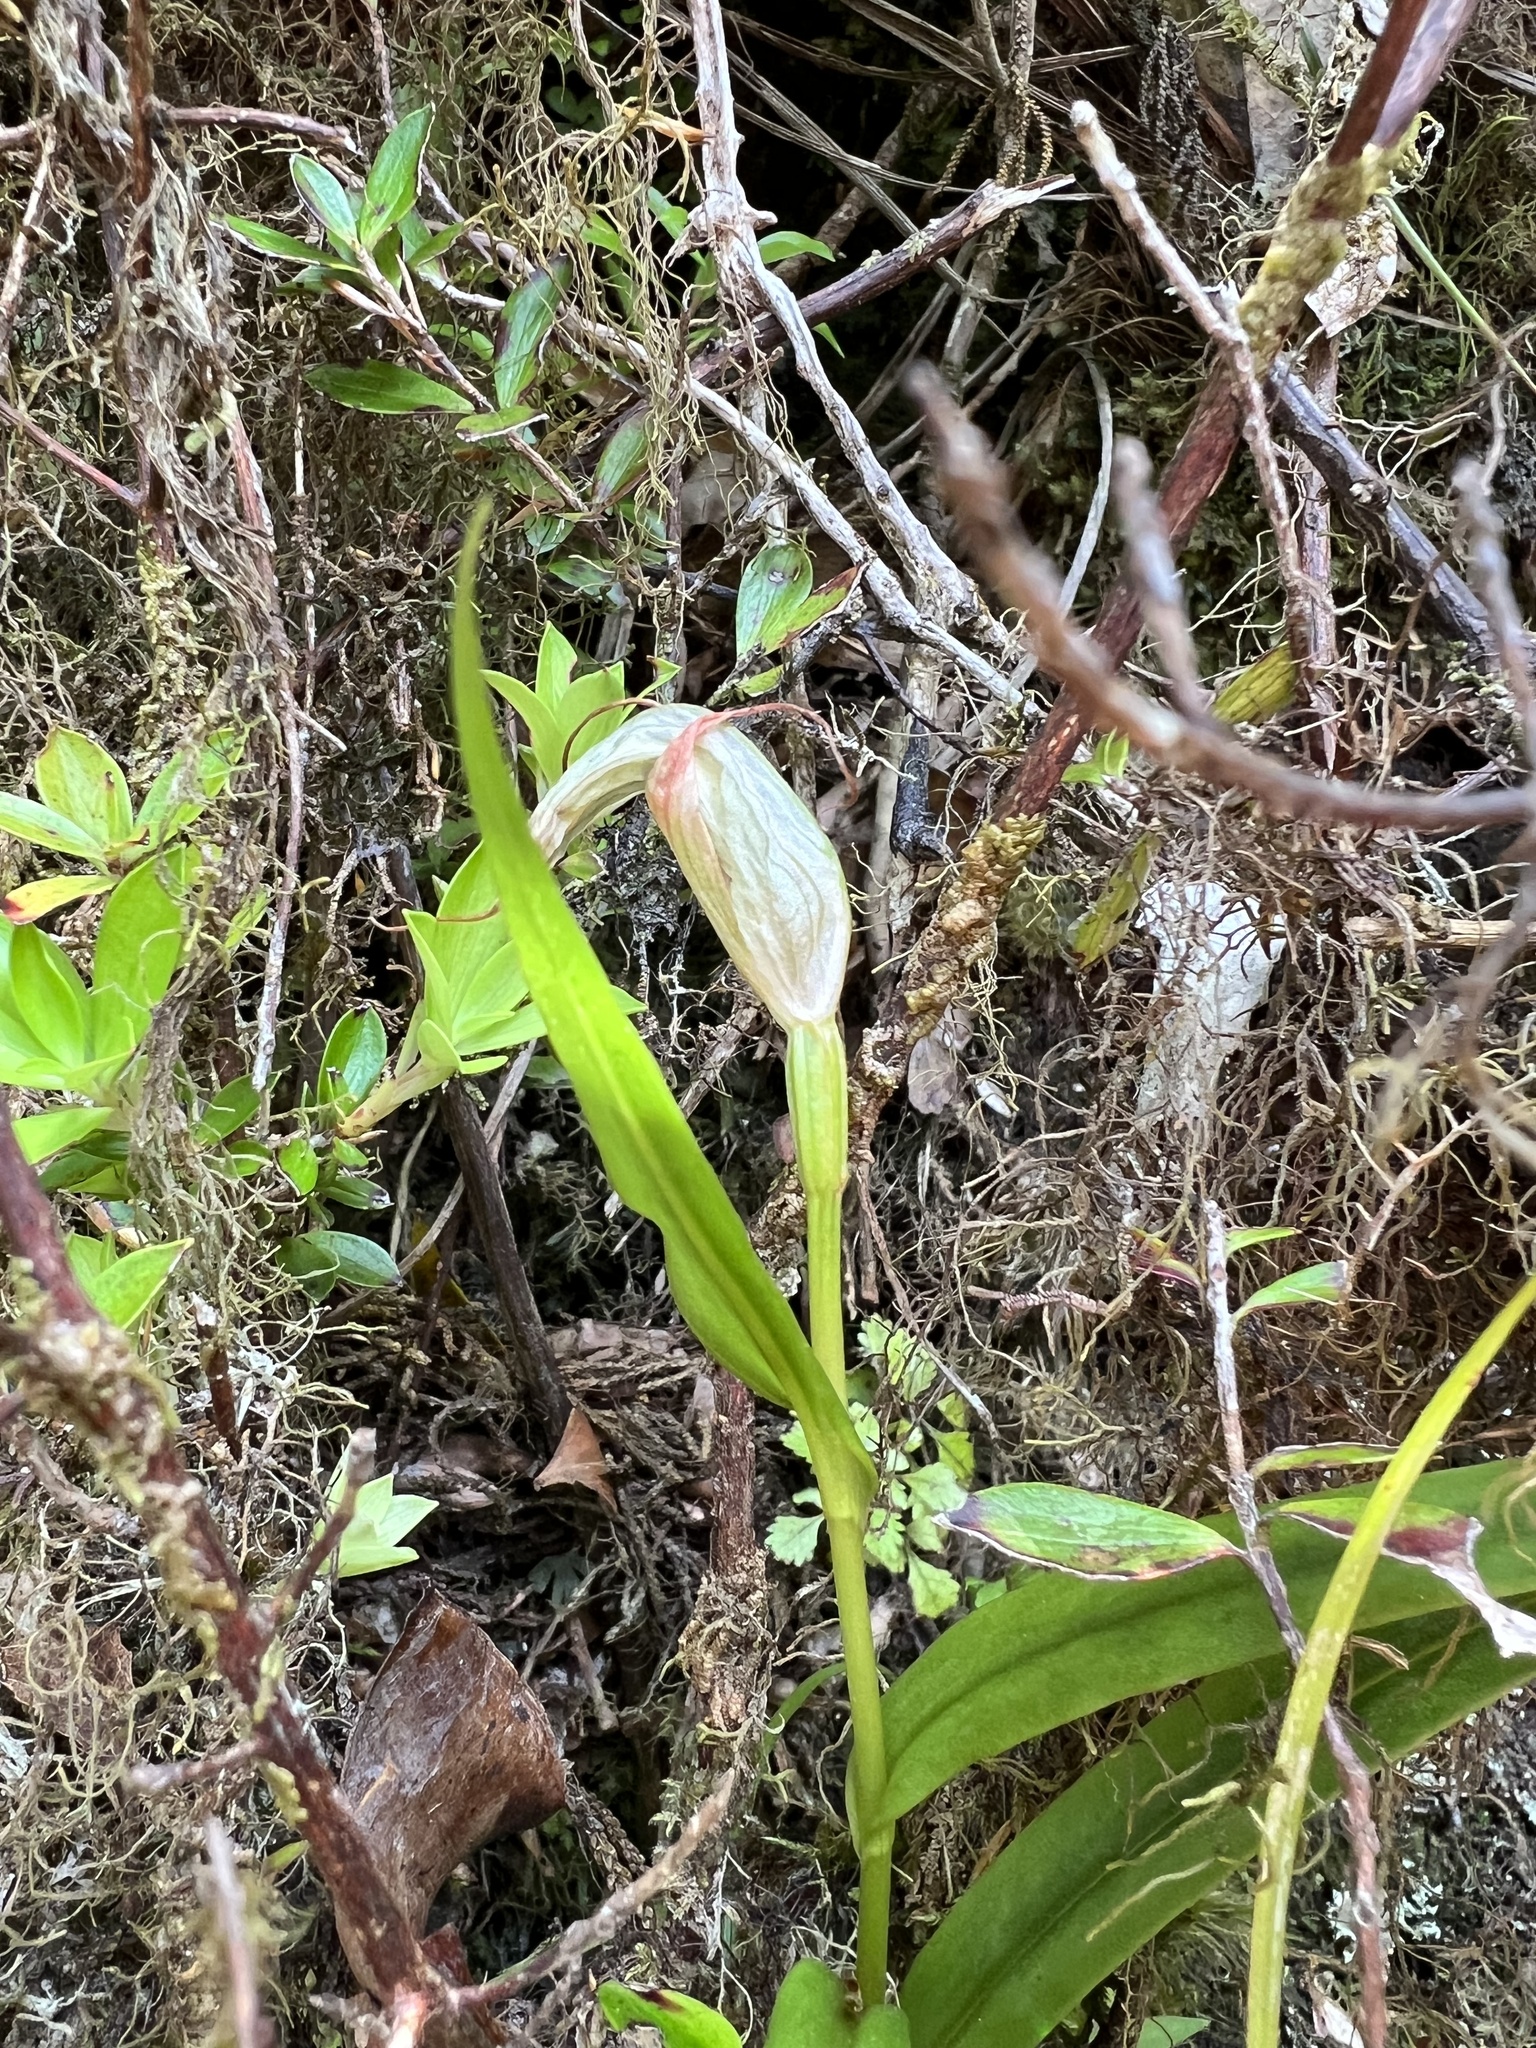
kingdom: Plantae
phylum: Tracheophyta
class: Liliopsida
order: Asparagales
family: Orchidaceae
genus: Pterostylis
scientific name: Pterostylis banksii
